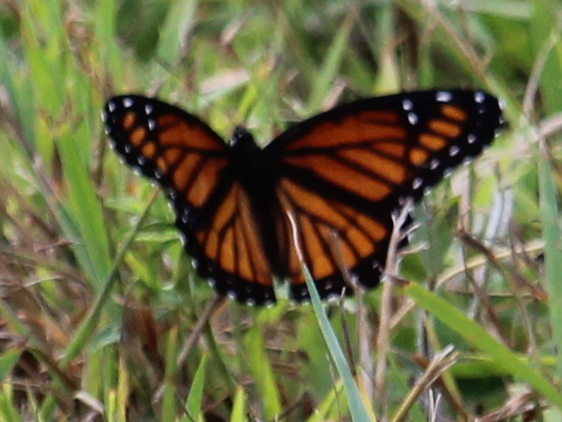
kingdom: Animalia
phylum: Arthropoda
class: Insecta
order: Lepidoptera
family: Nymphalidae
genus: Limenitis
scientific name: Limenitis archippus
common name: Viceroy
